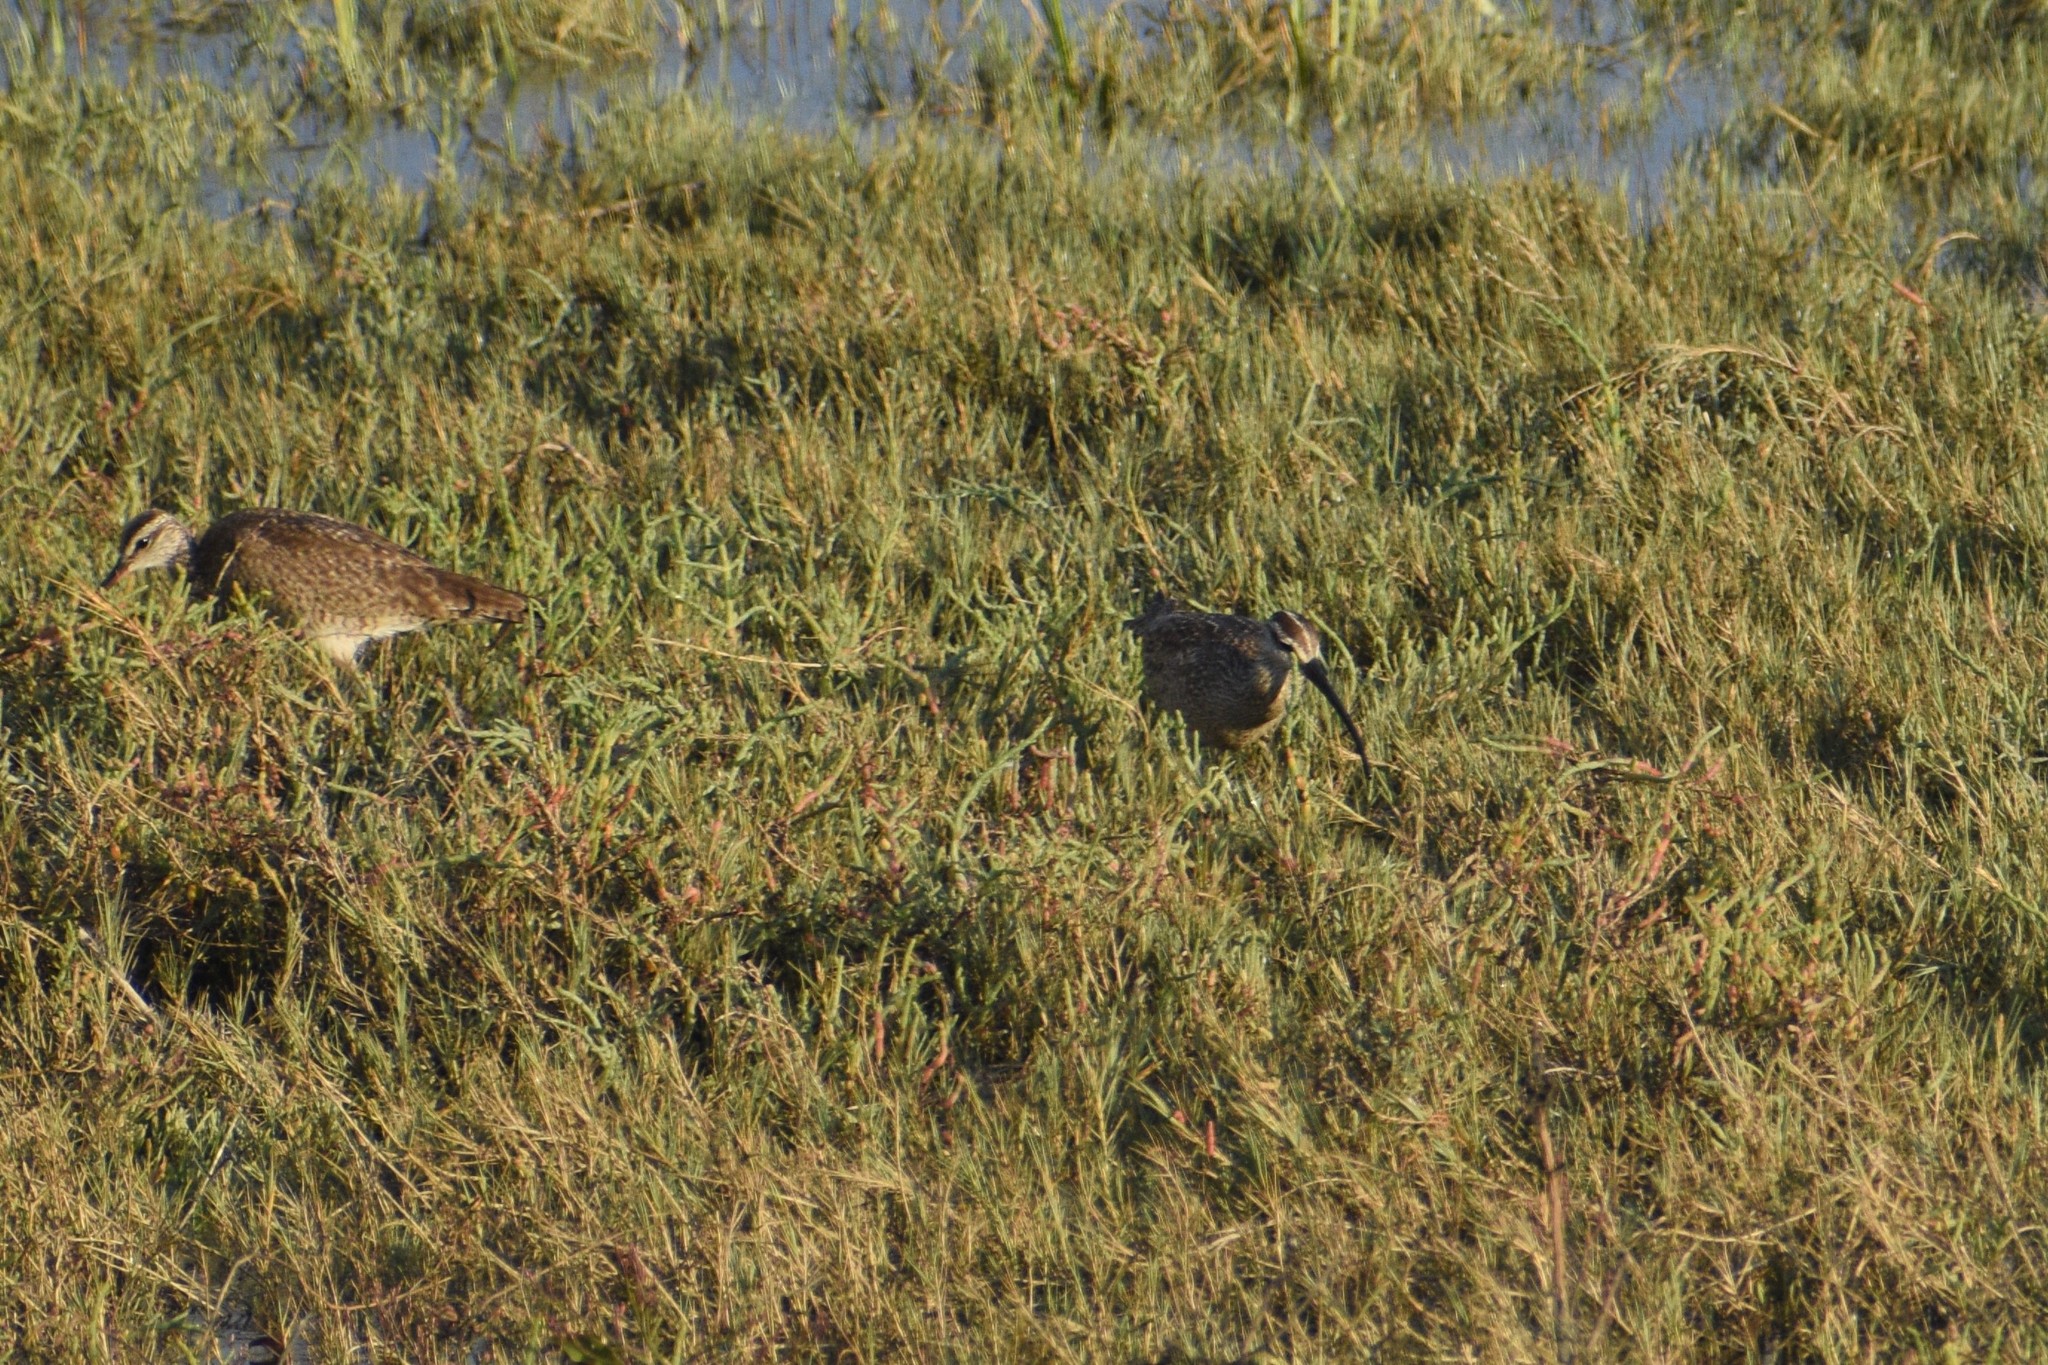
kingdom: Animalia
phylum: Chordata
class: Aves
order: Charadriiformes
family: Scolopacidae
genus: Numenius
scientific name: Numenius phaeopus
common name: Whimbrel
